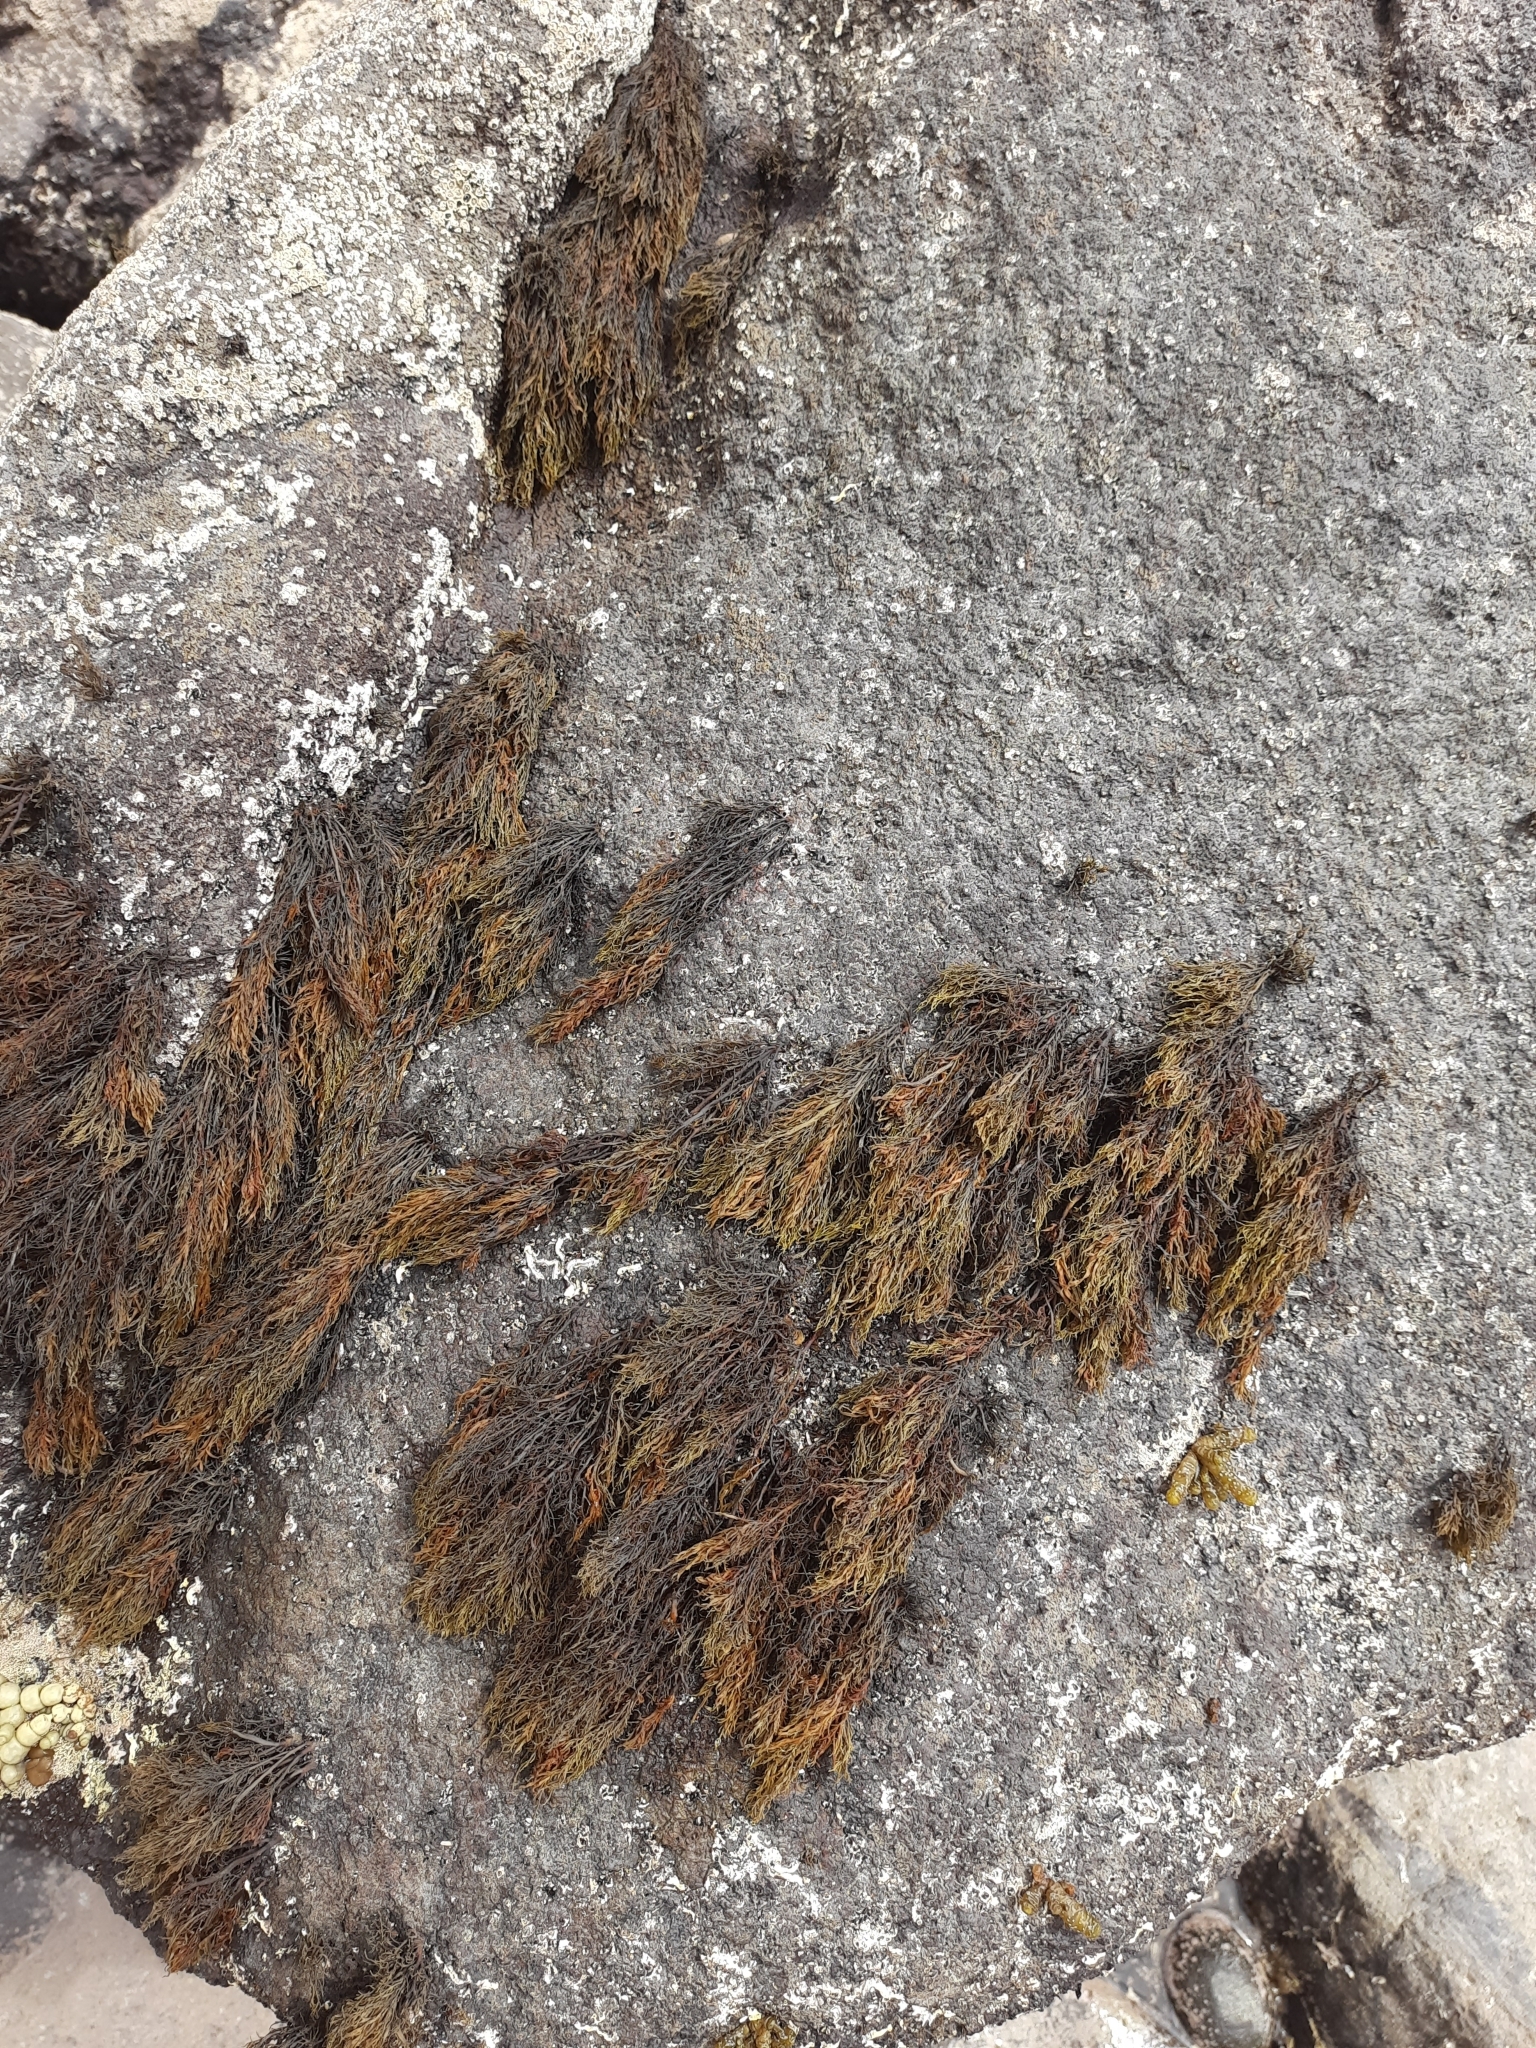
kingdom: Chromista
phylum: Ochrophyta
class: Phaeophyceae
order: Scytothamnales
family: Scytothamnaceae
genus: Scytothamnus
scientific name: Scytothamnus australis
